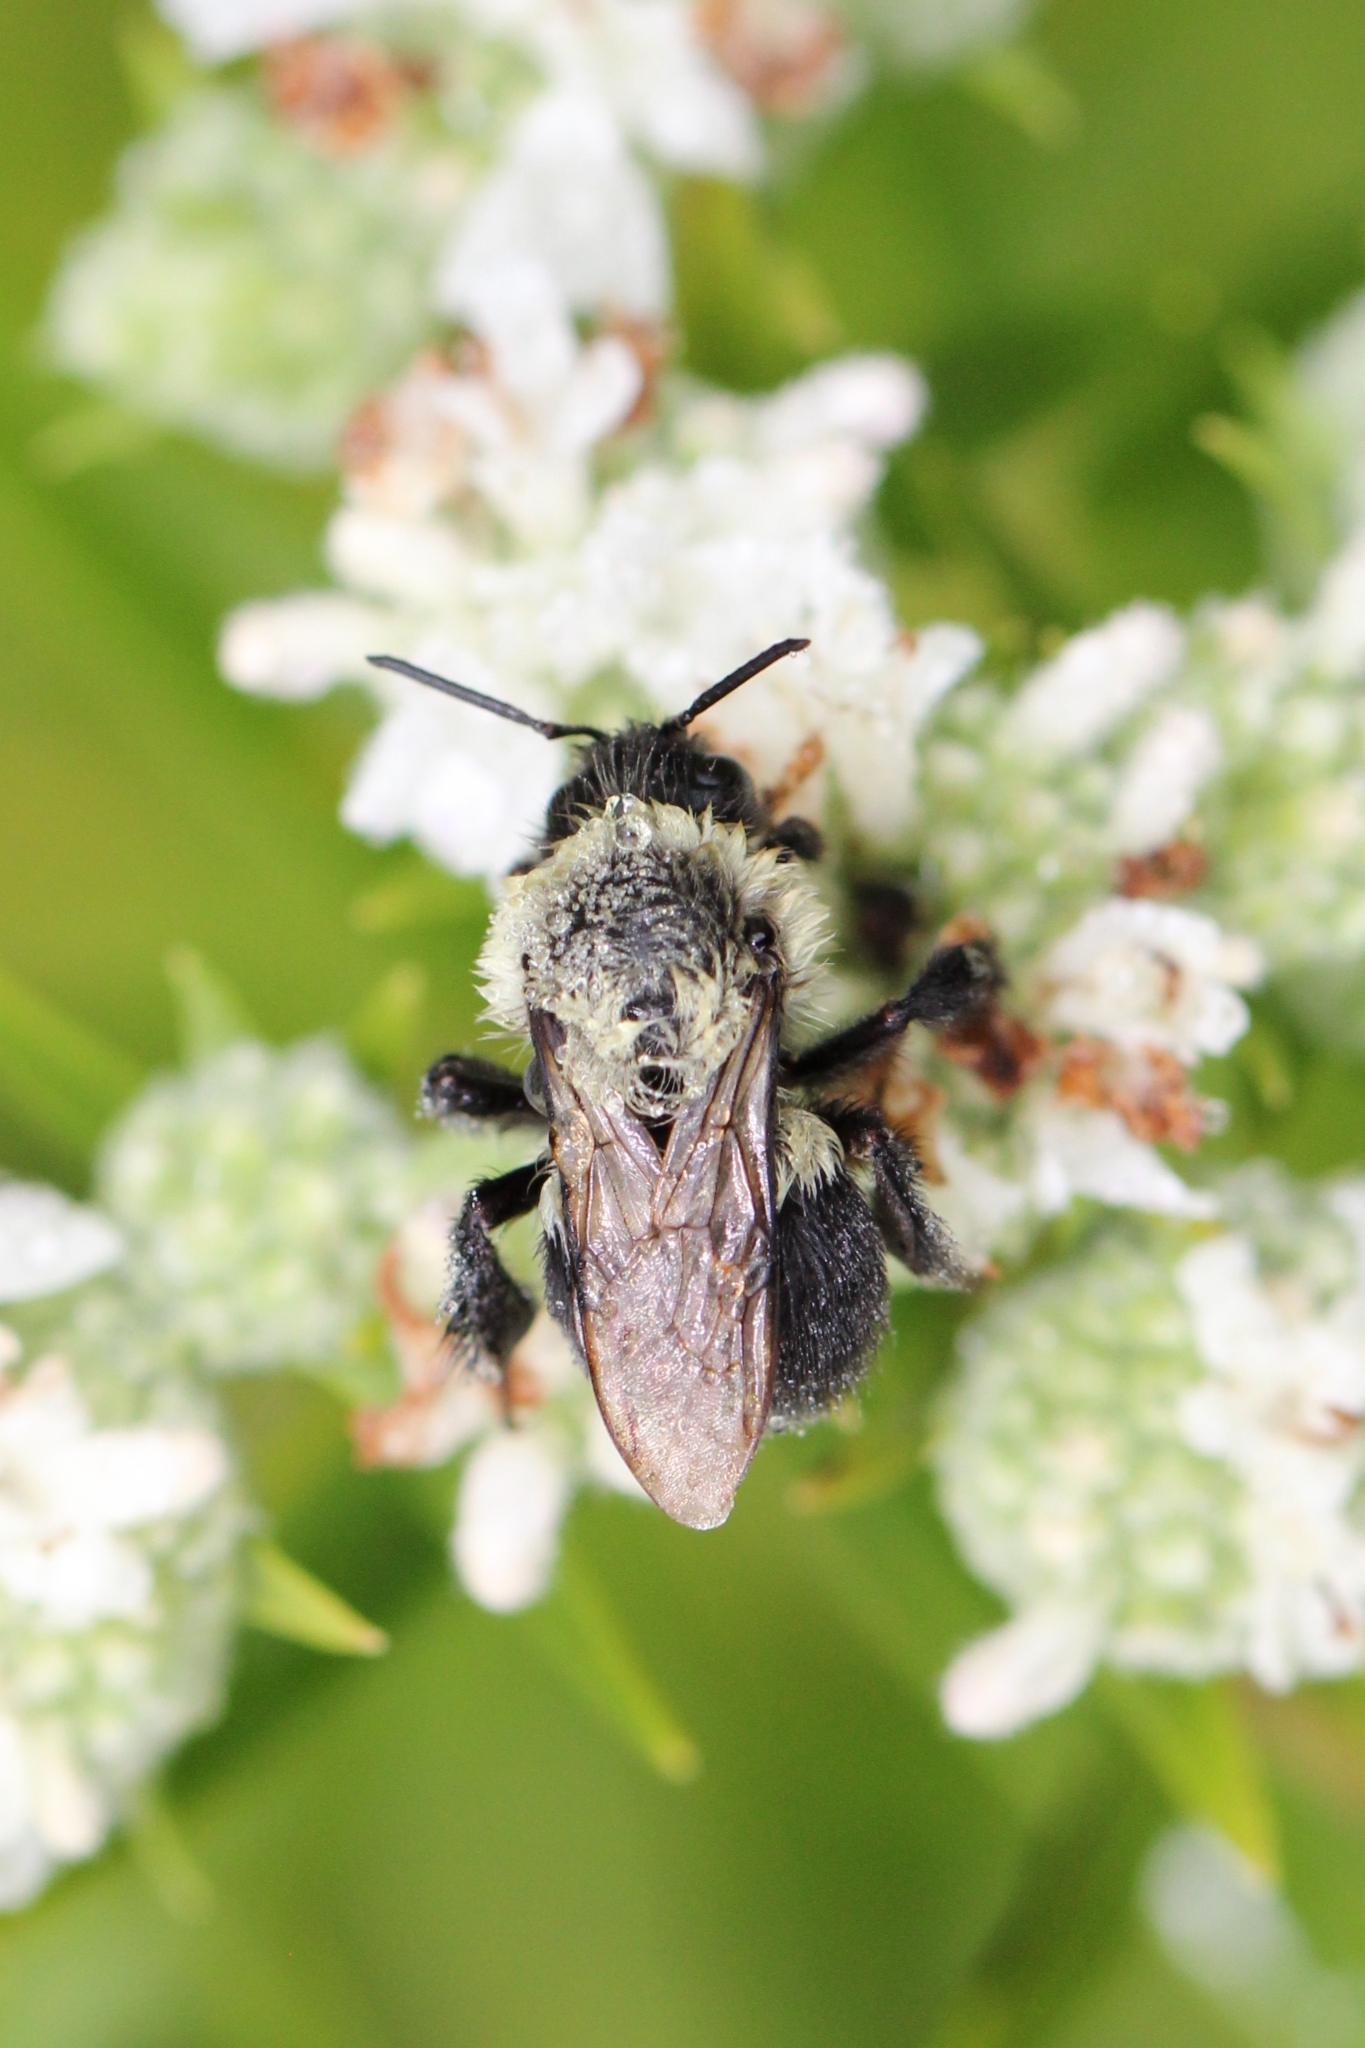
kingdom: Animalia
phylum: Arthropoda
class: Insecta
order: Hymenoptera
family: Apidae
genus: Bombus
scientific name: Bombus impatiens
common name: Common eastern bumble bee
